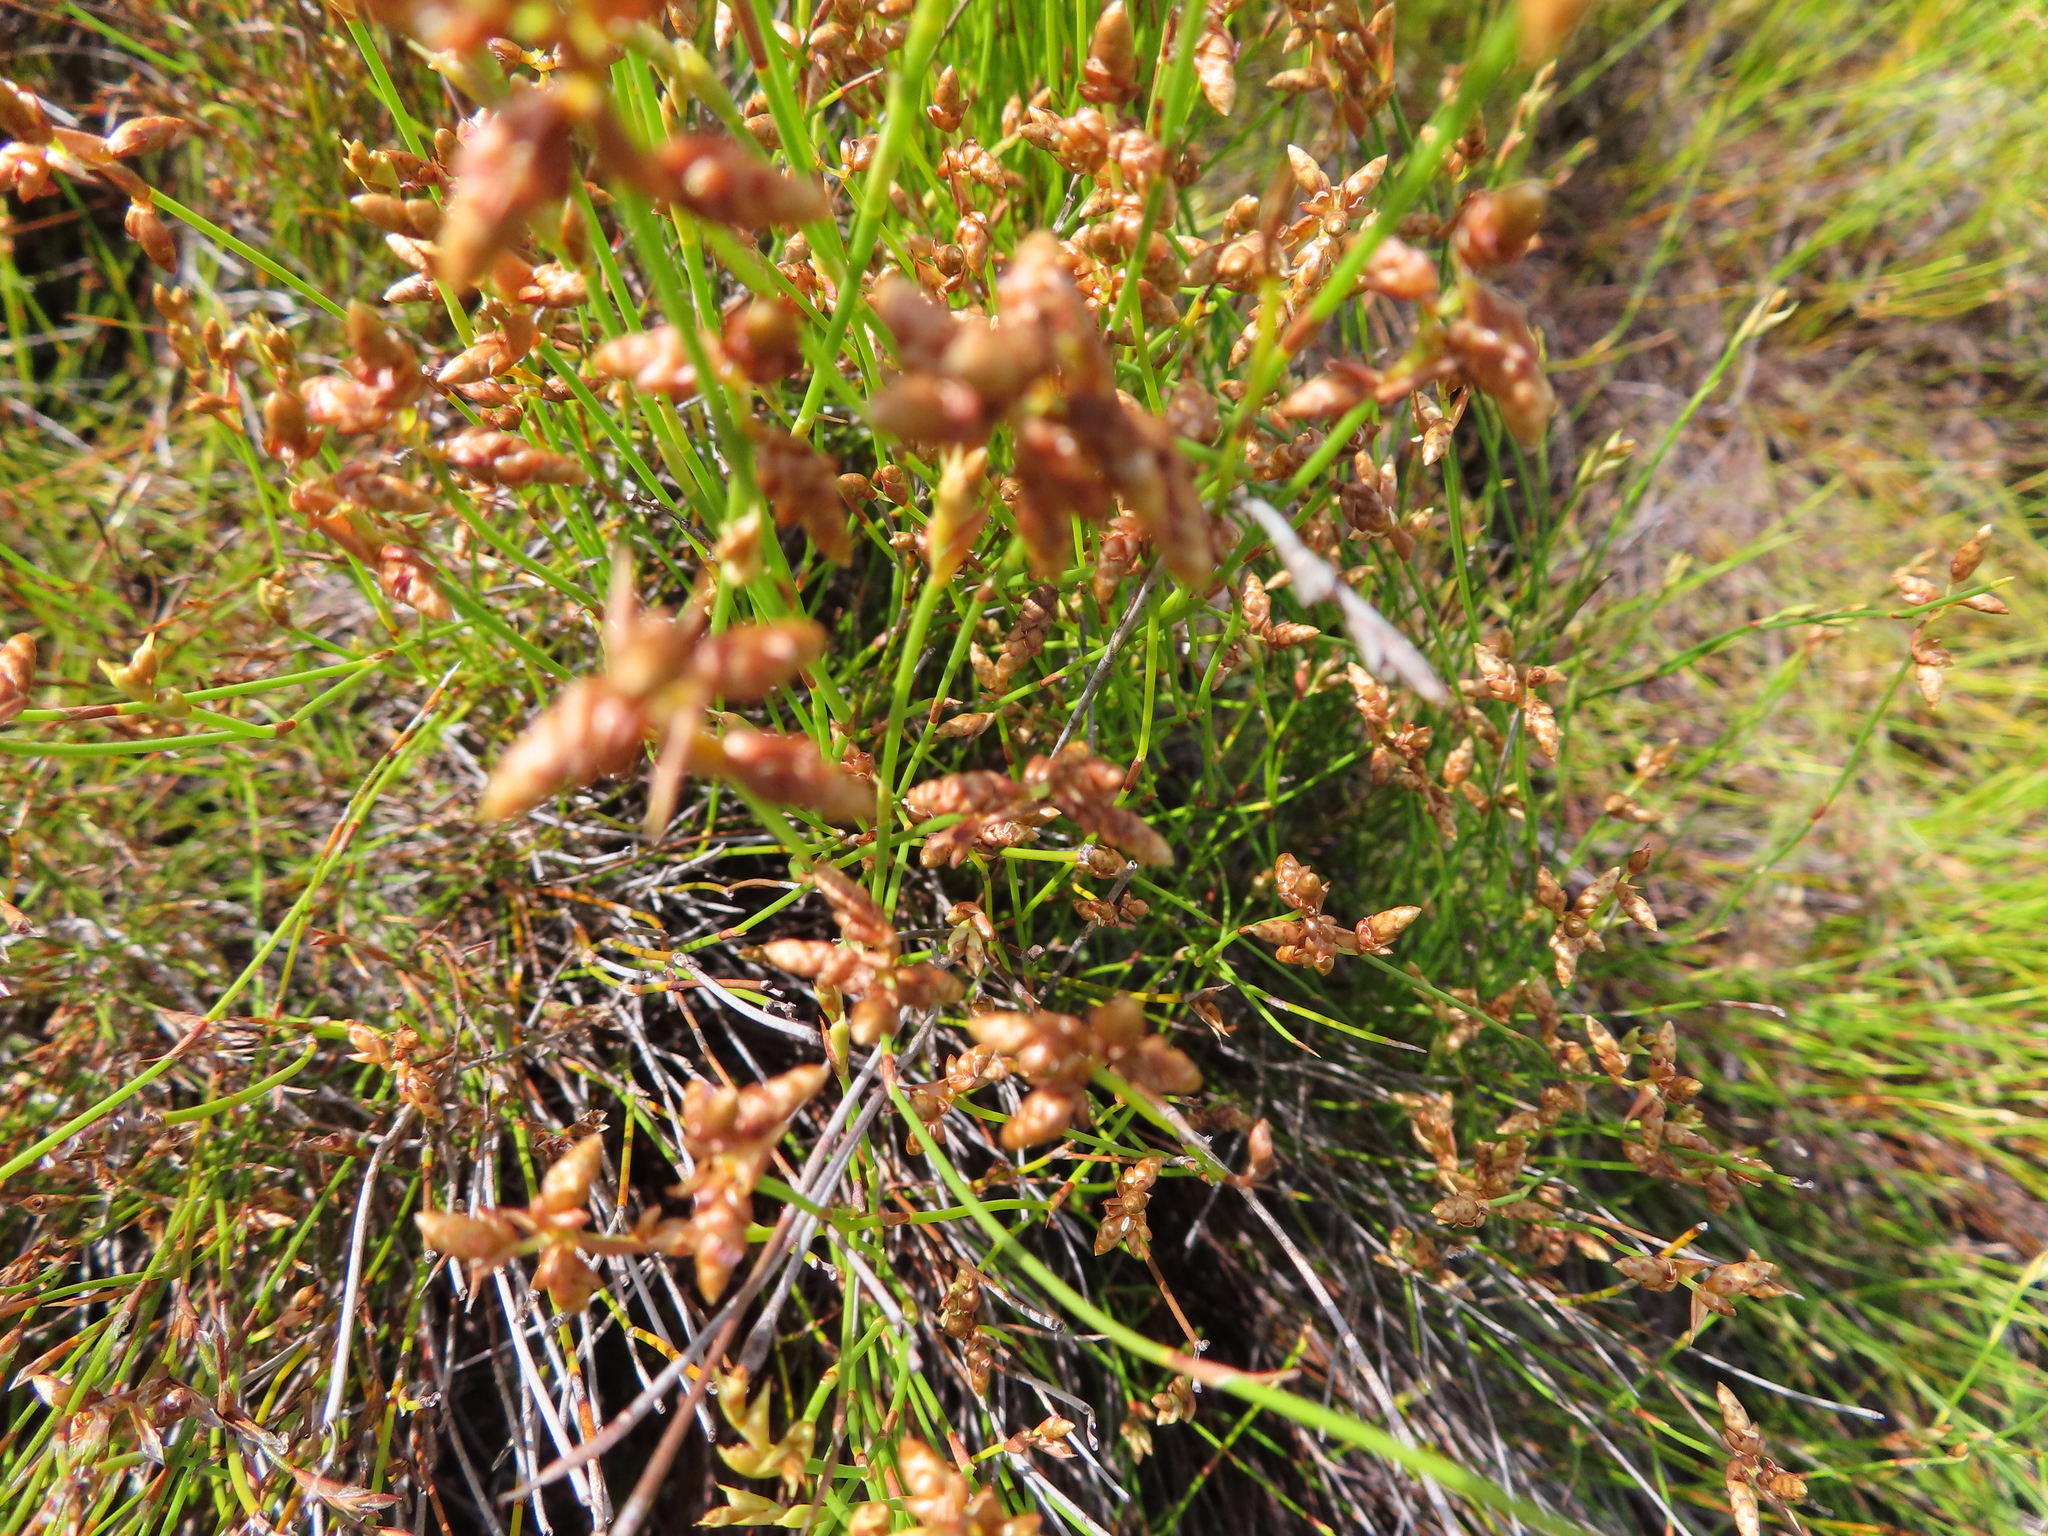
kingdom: Plantae
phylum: Tracheophyta
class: Liliopsida
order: Poales
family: Restionaceae
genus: Mastersiella
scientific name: Mastersiella digitata
